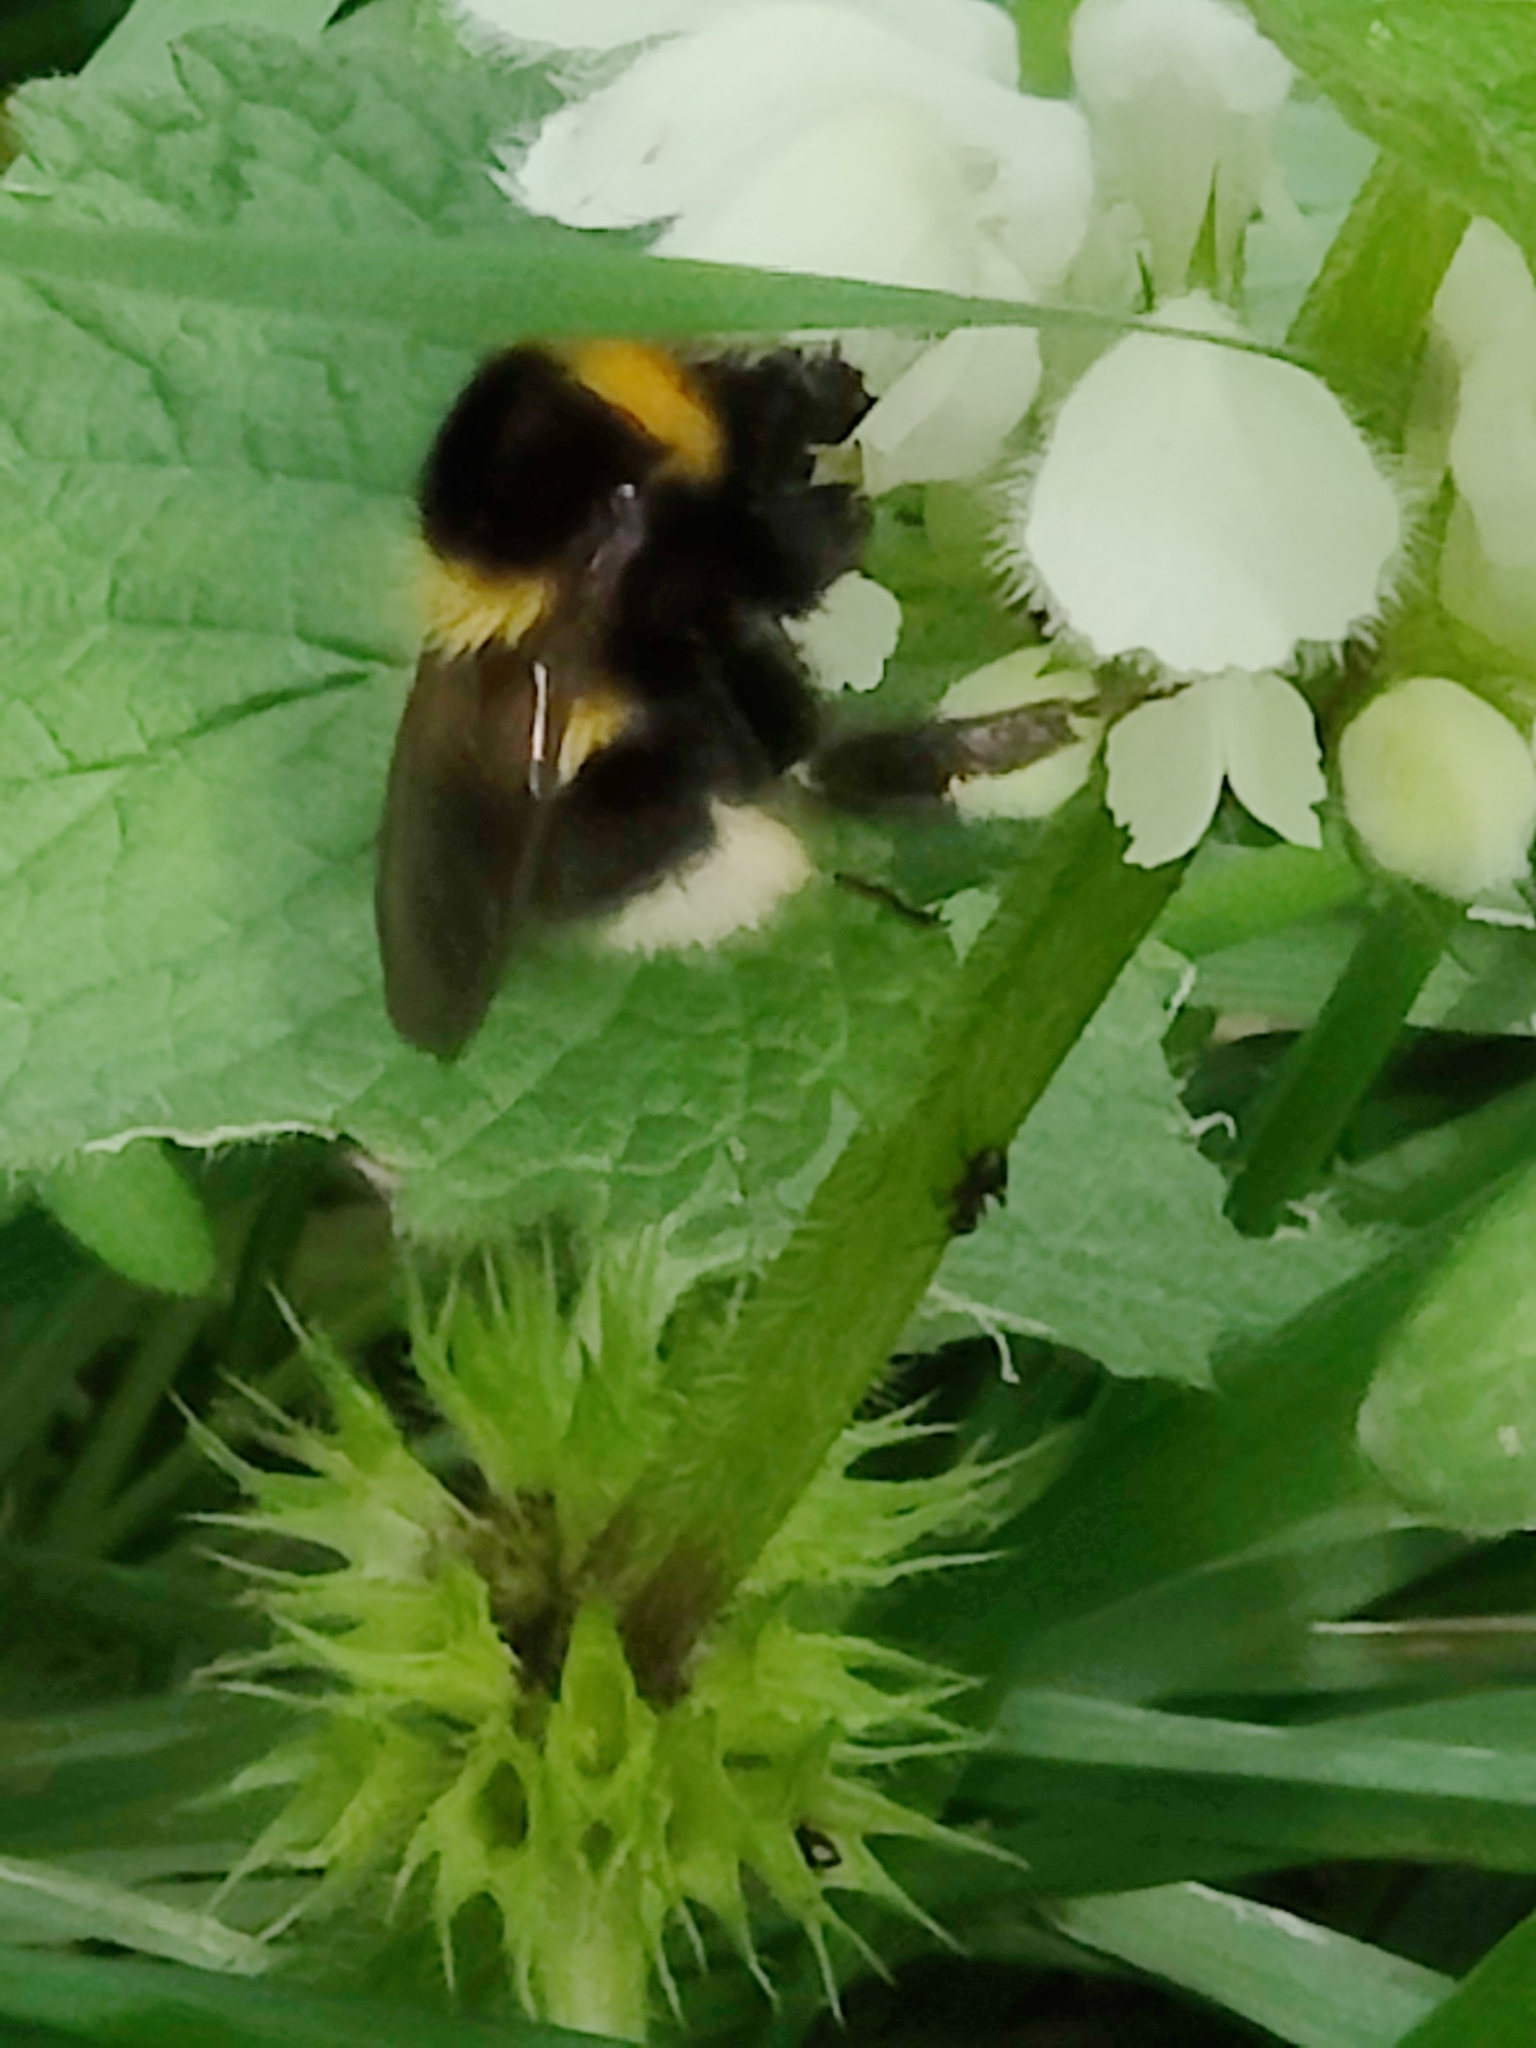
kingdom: Animalia
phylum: Arthropoda
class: Insecta
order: Hymenoptera
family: Apidae
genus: Bombus
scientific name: Bombus hortorum
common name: Garden bumblebee
